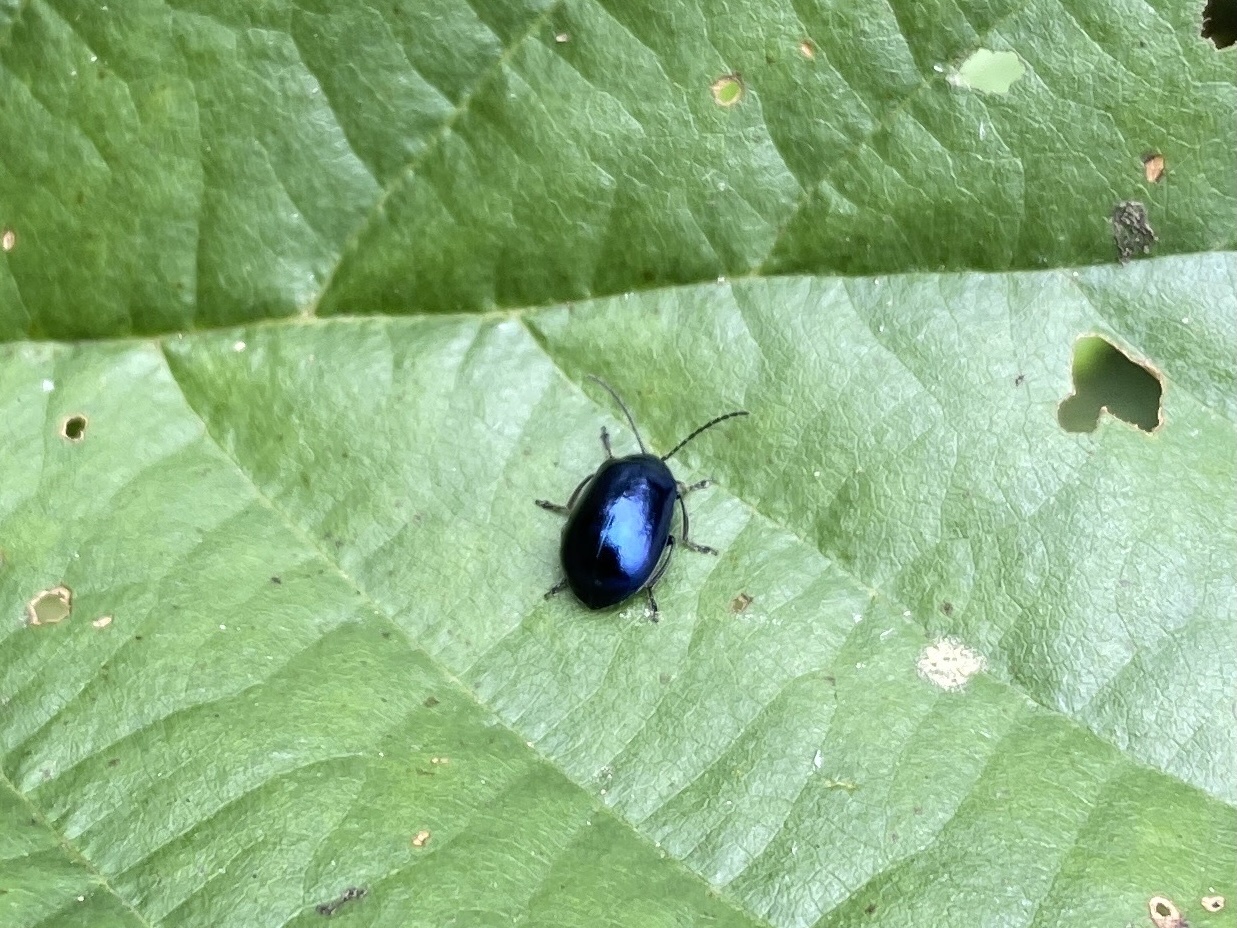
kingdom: Animalia
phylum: Arthropoda
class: Insecta
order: Coleoptera
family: Chrysomelidae
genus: Agelastica
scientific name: Agelastica alni
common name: Alder leaf beetle
